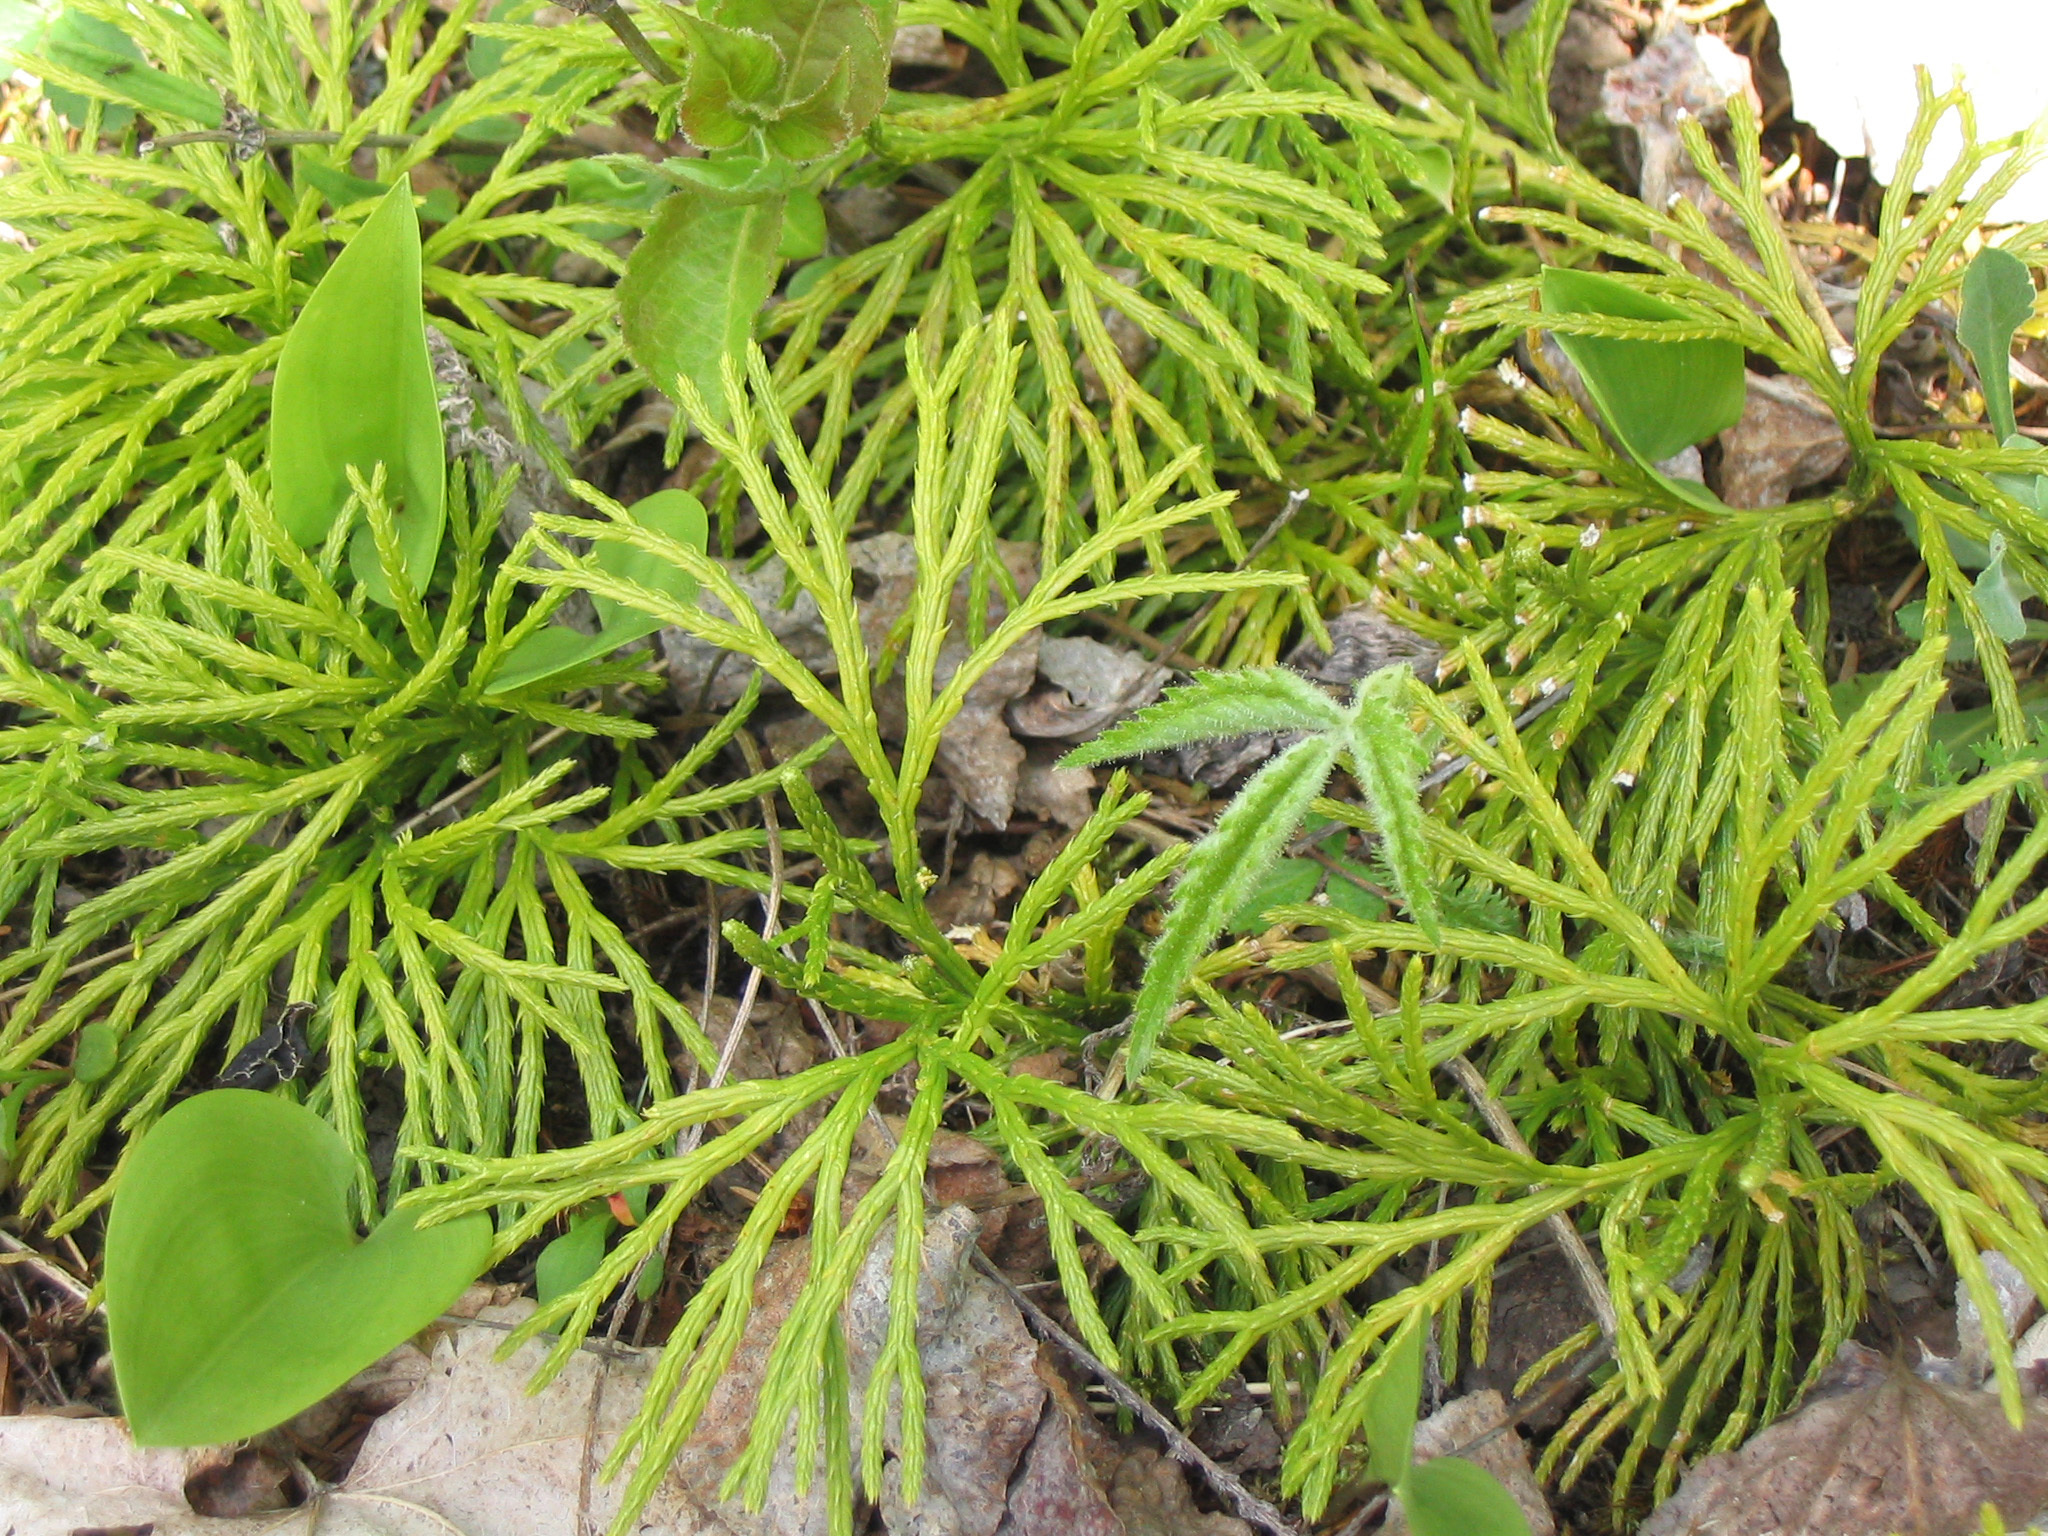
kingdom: Plantae
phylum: Tracheophyta
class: Lycopodiopsida
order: Lycopodiales
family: Lycopodiaceae
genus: Diphasiastrum
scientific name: Diphasiastrum digitatum
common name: Southern running-pine
